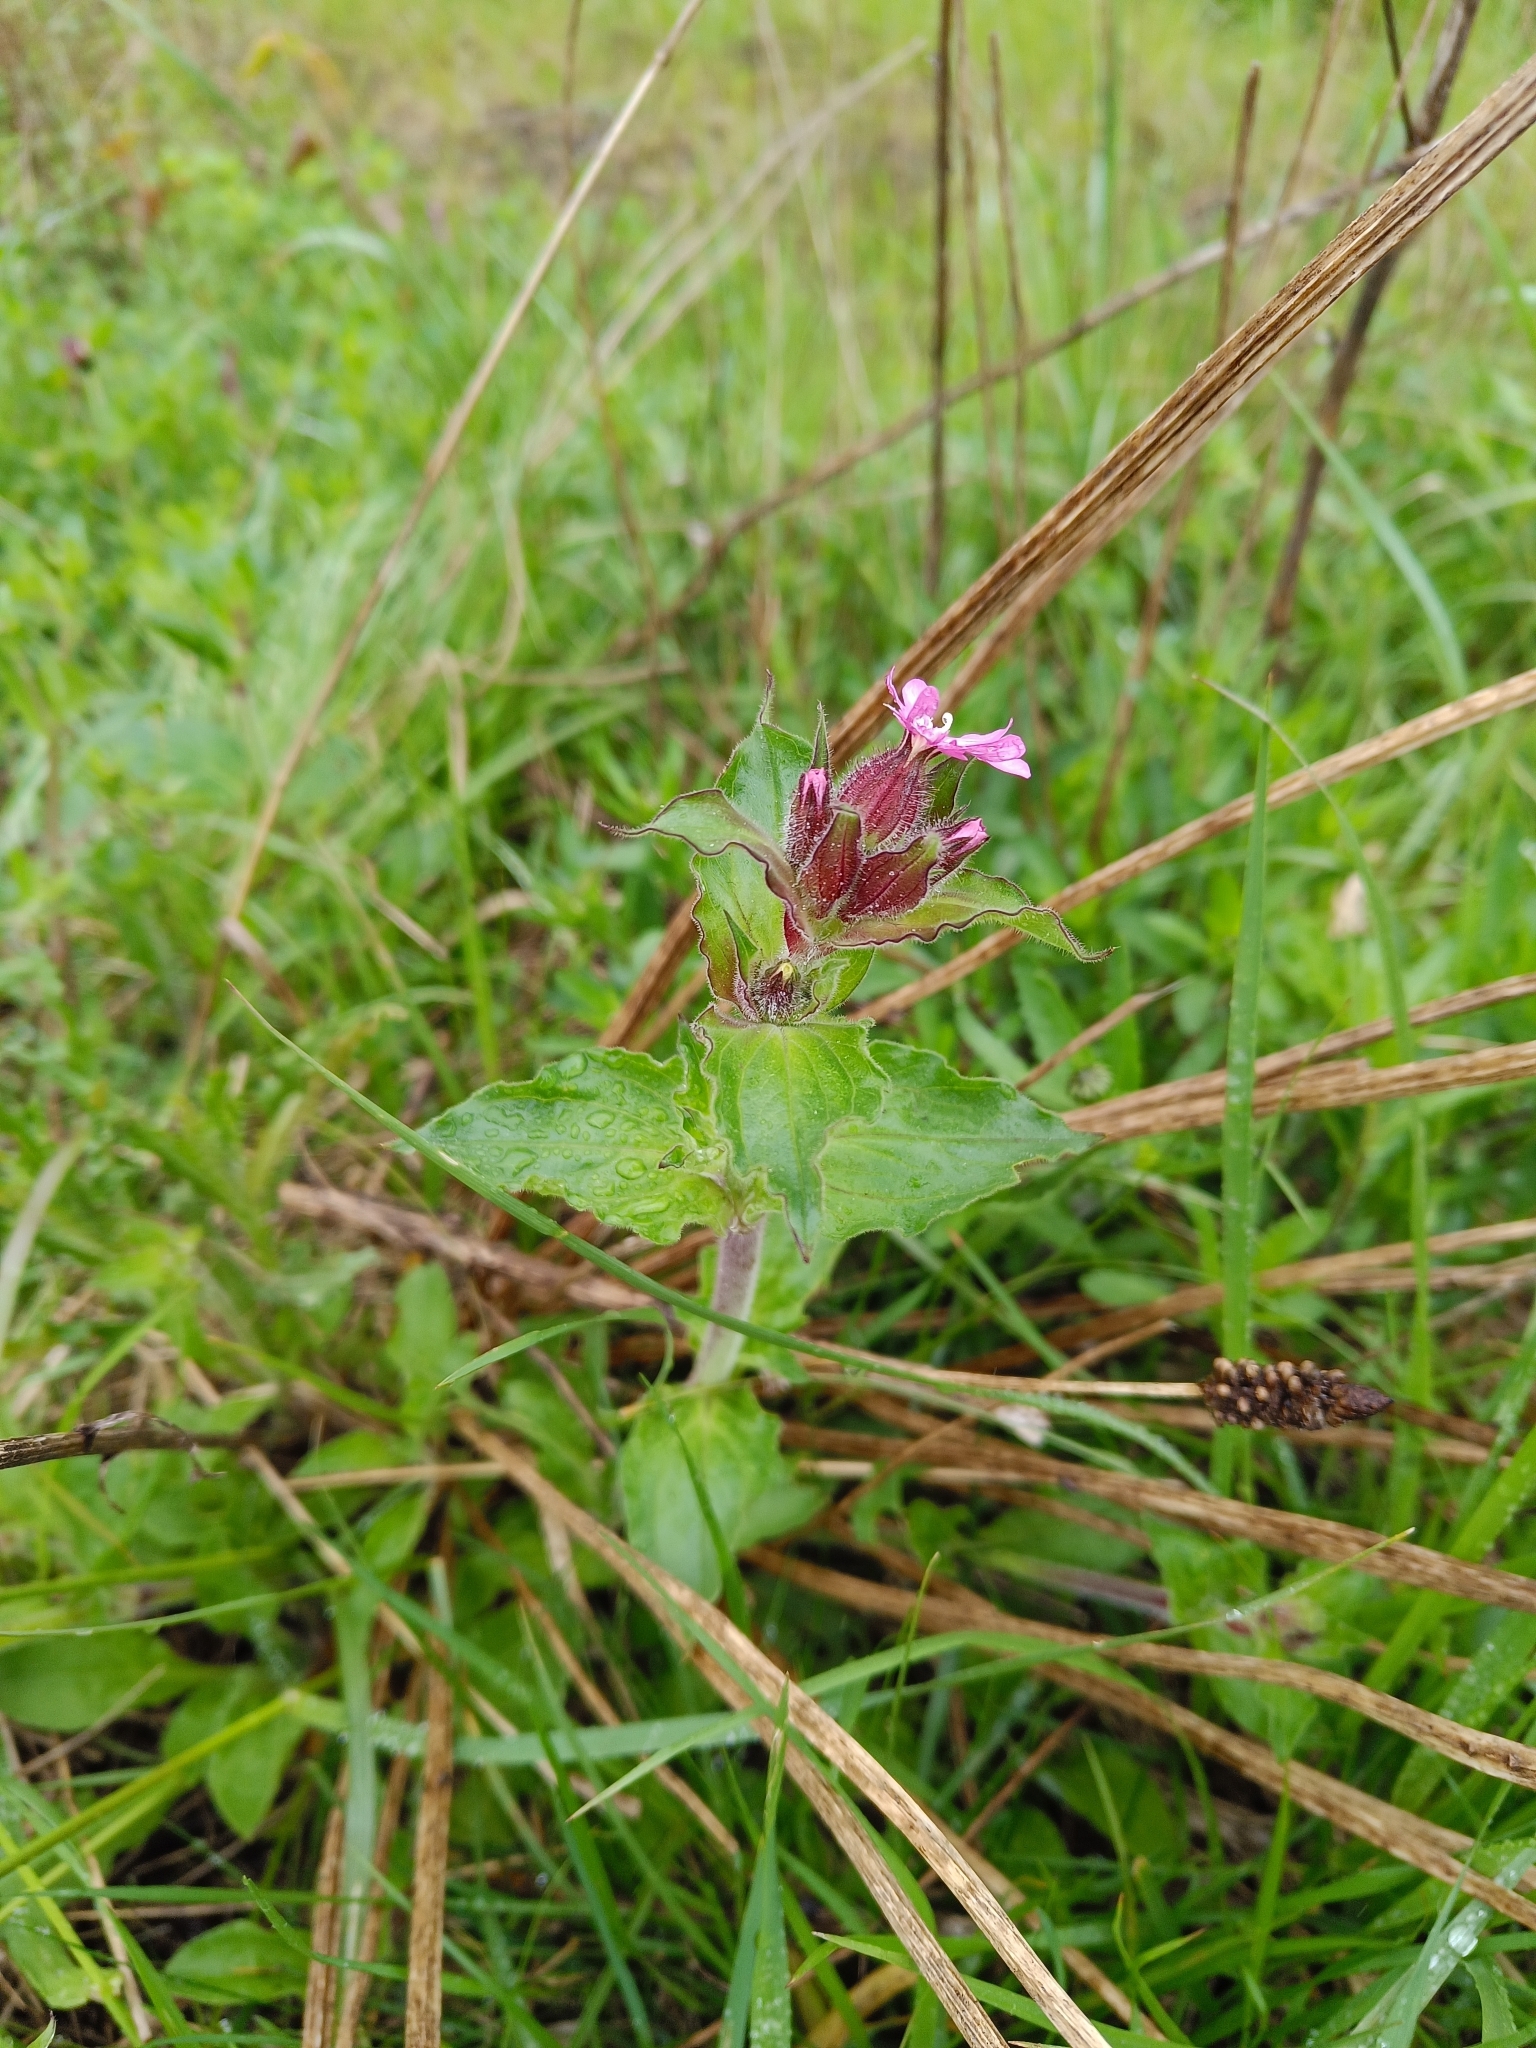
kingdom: Plantae
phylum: Tracheophyta
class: Magnoliopsida
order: Caryophyllales
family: Caryophyllaceae
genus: Silene
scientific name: Silene dioica
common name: Red campion
